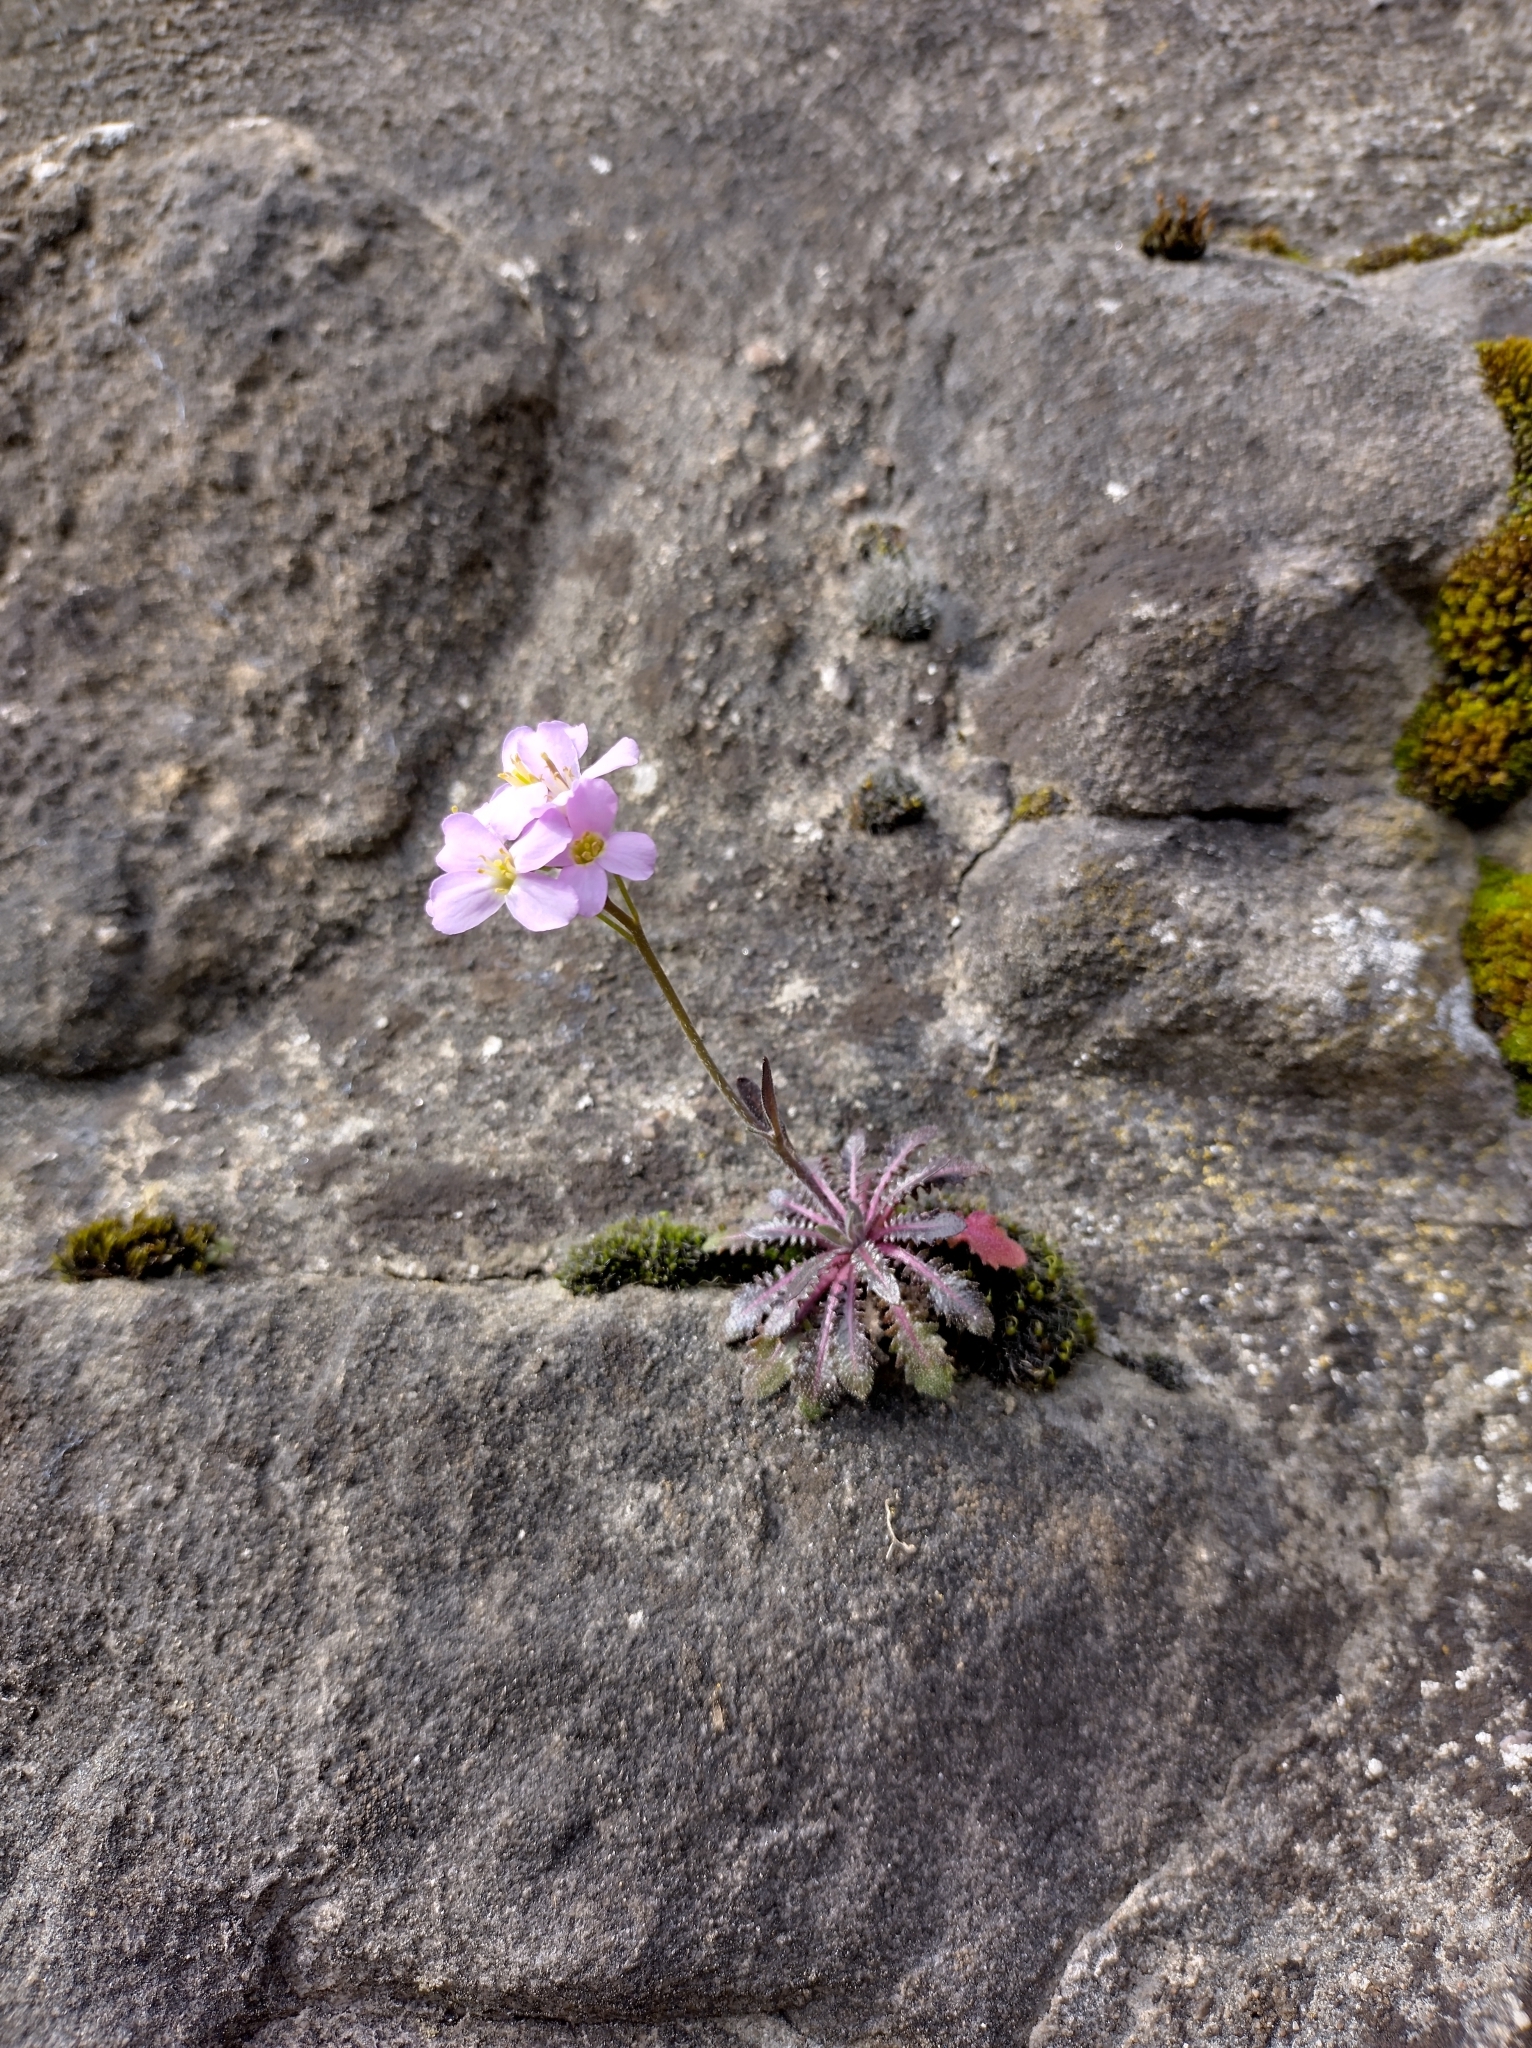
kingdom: Plantae
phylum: Tracheophyta
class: Magnoliopsida
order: Brassicales
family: Brassicaceae
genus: Arabidopsis
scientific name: Arabidopsis arenosa
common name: Sand rock-cress
